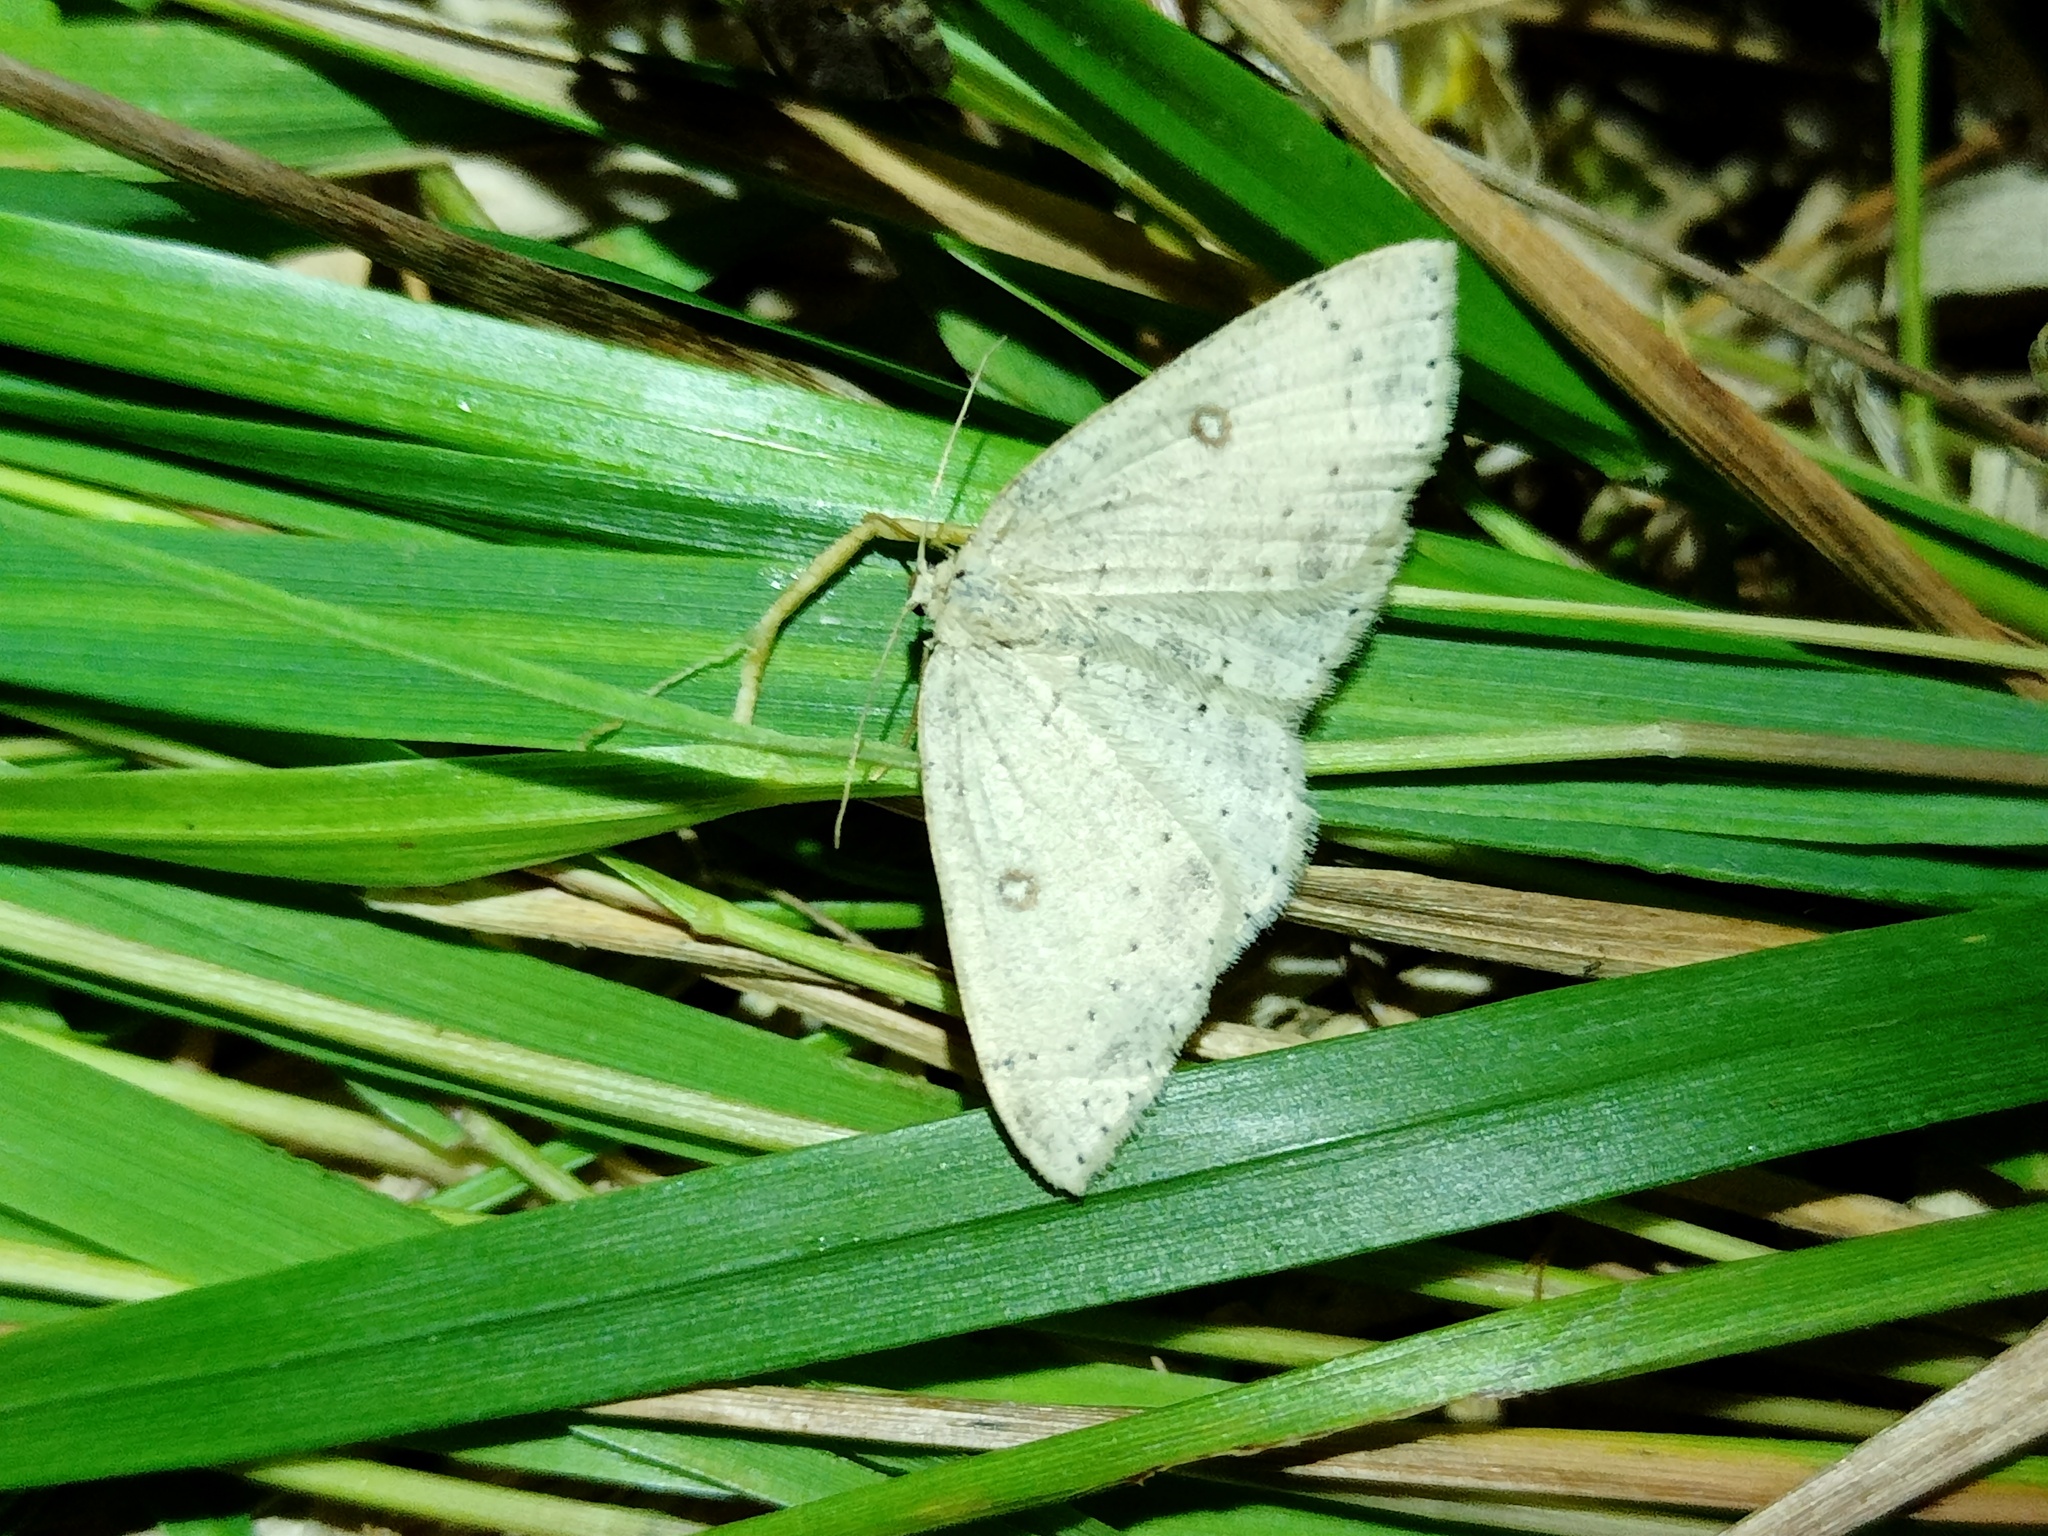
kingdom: Animalia
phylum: Arthropoda
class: Insecta
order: Lepidoptera
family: Geometridae
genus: Cyclophora
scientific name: Cyclophora albipunctata
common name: Birch mocha
